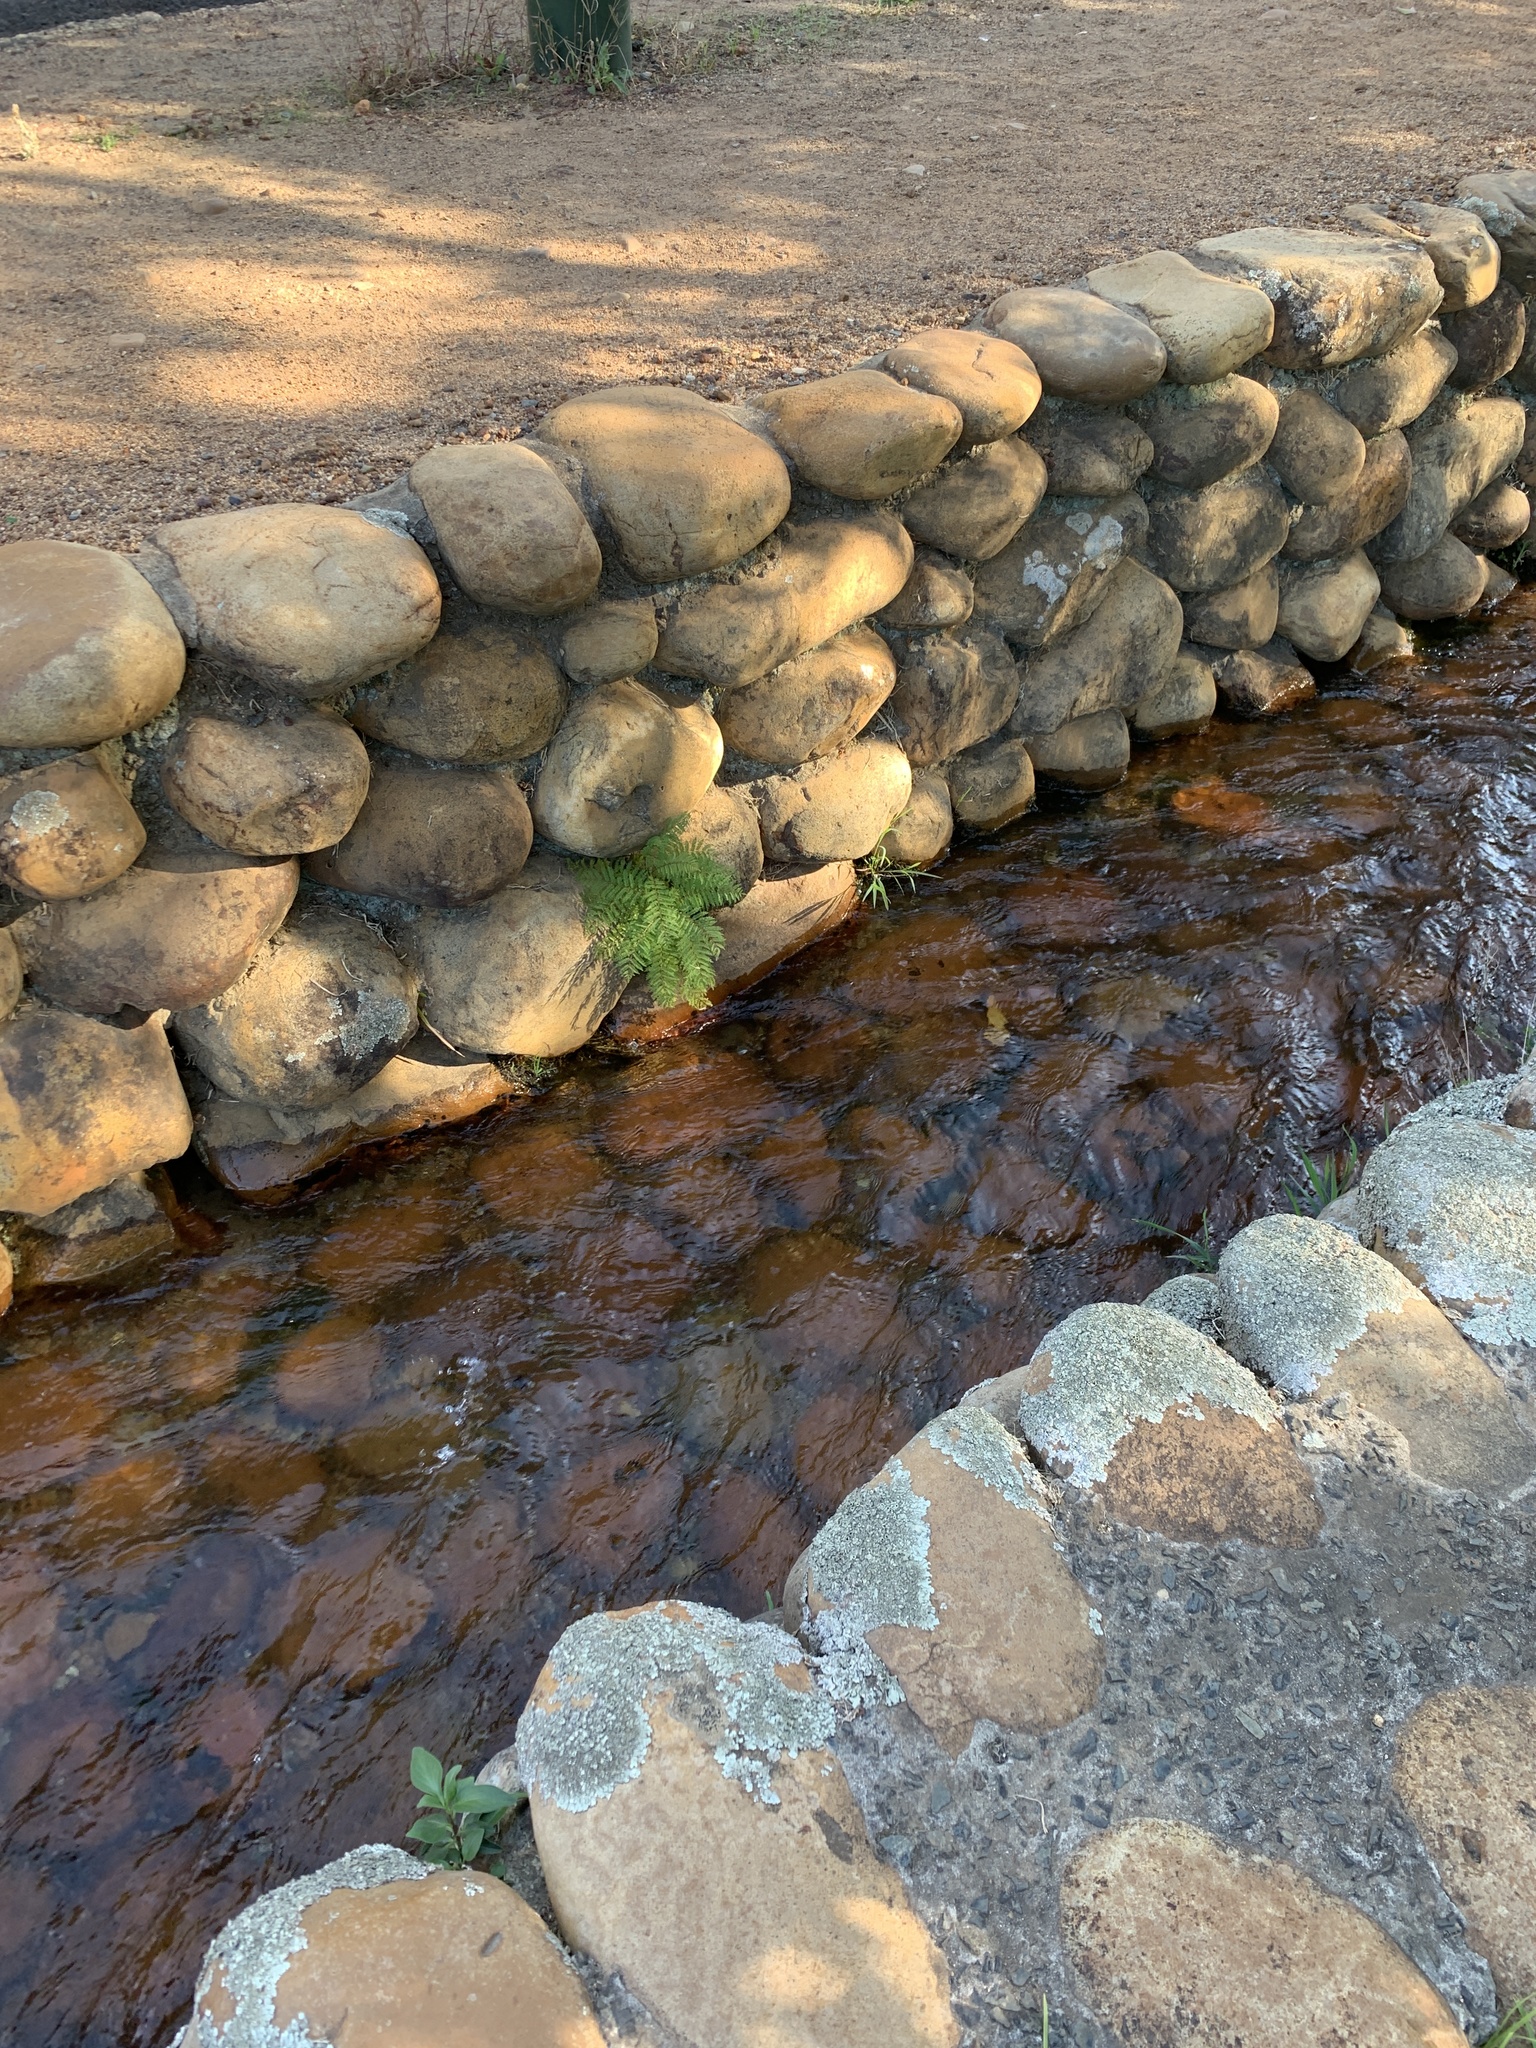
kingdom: Plantae
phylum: Tracheophyta
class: Magnoliopsida
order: Lamiales
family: Bignoniaceae
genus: Jacaranda
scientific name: Jacaranda mimosifolia
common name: Black poui
